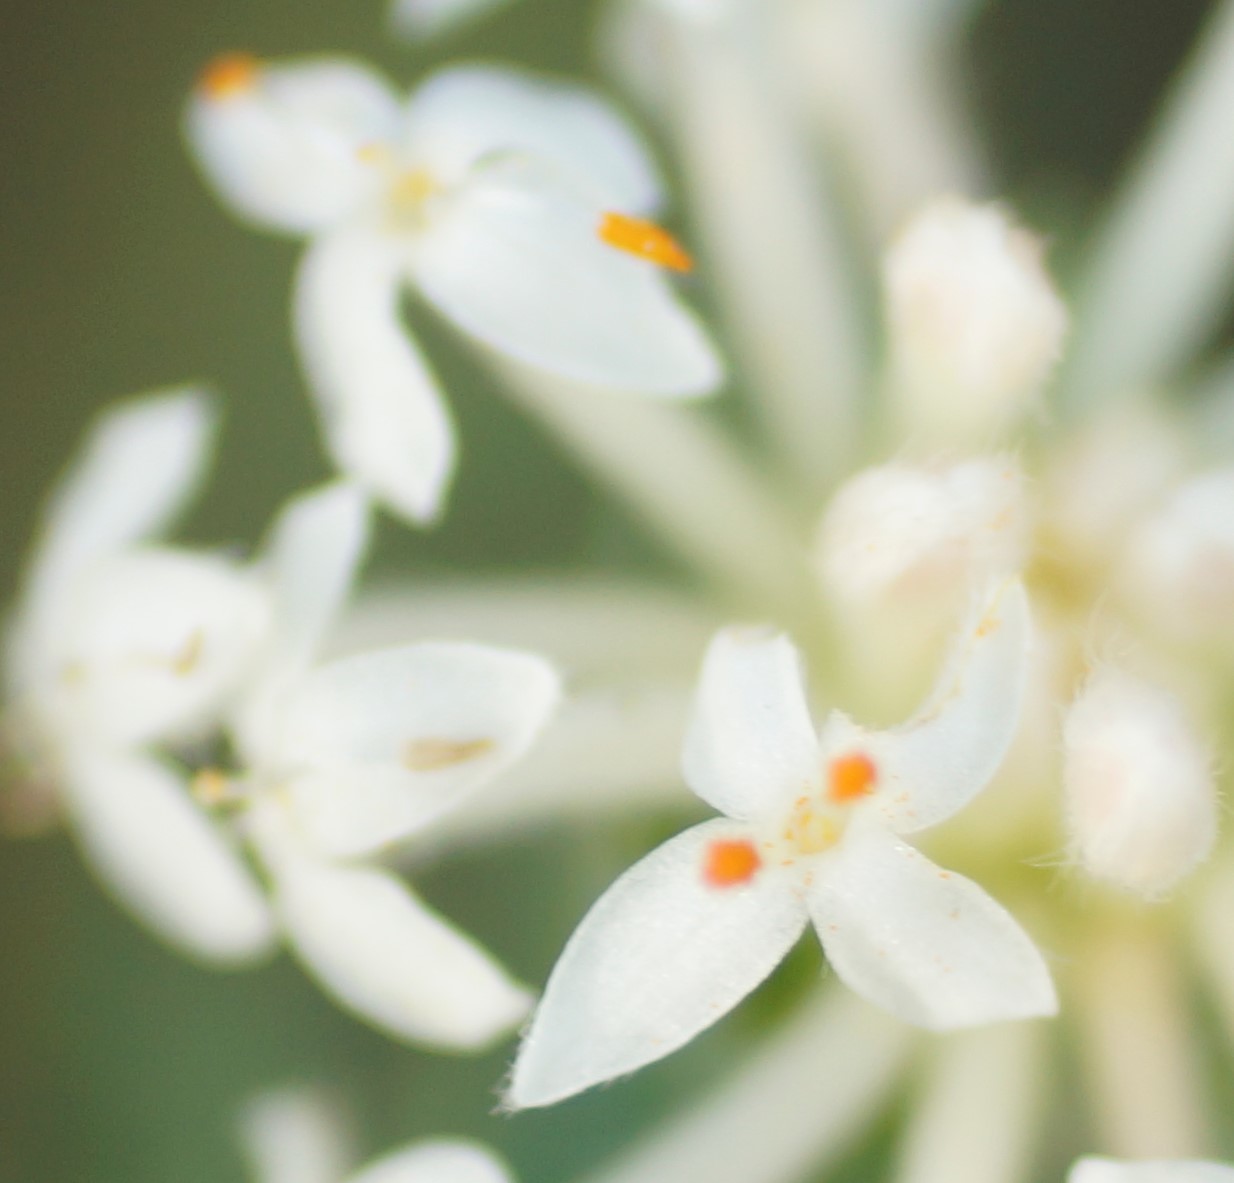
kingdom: Plantae
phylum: Tracheophyta
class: Magnoliopsida
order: Malvales
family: Thymelaeaceae
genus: Pimelea
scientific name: Pimelea glauca
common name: Smooth riceflower
